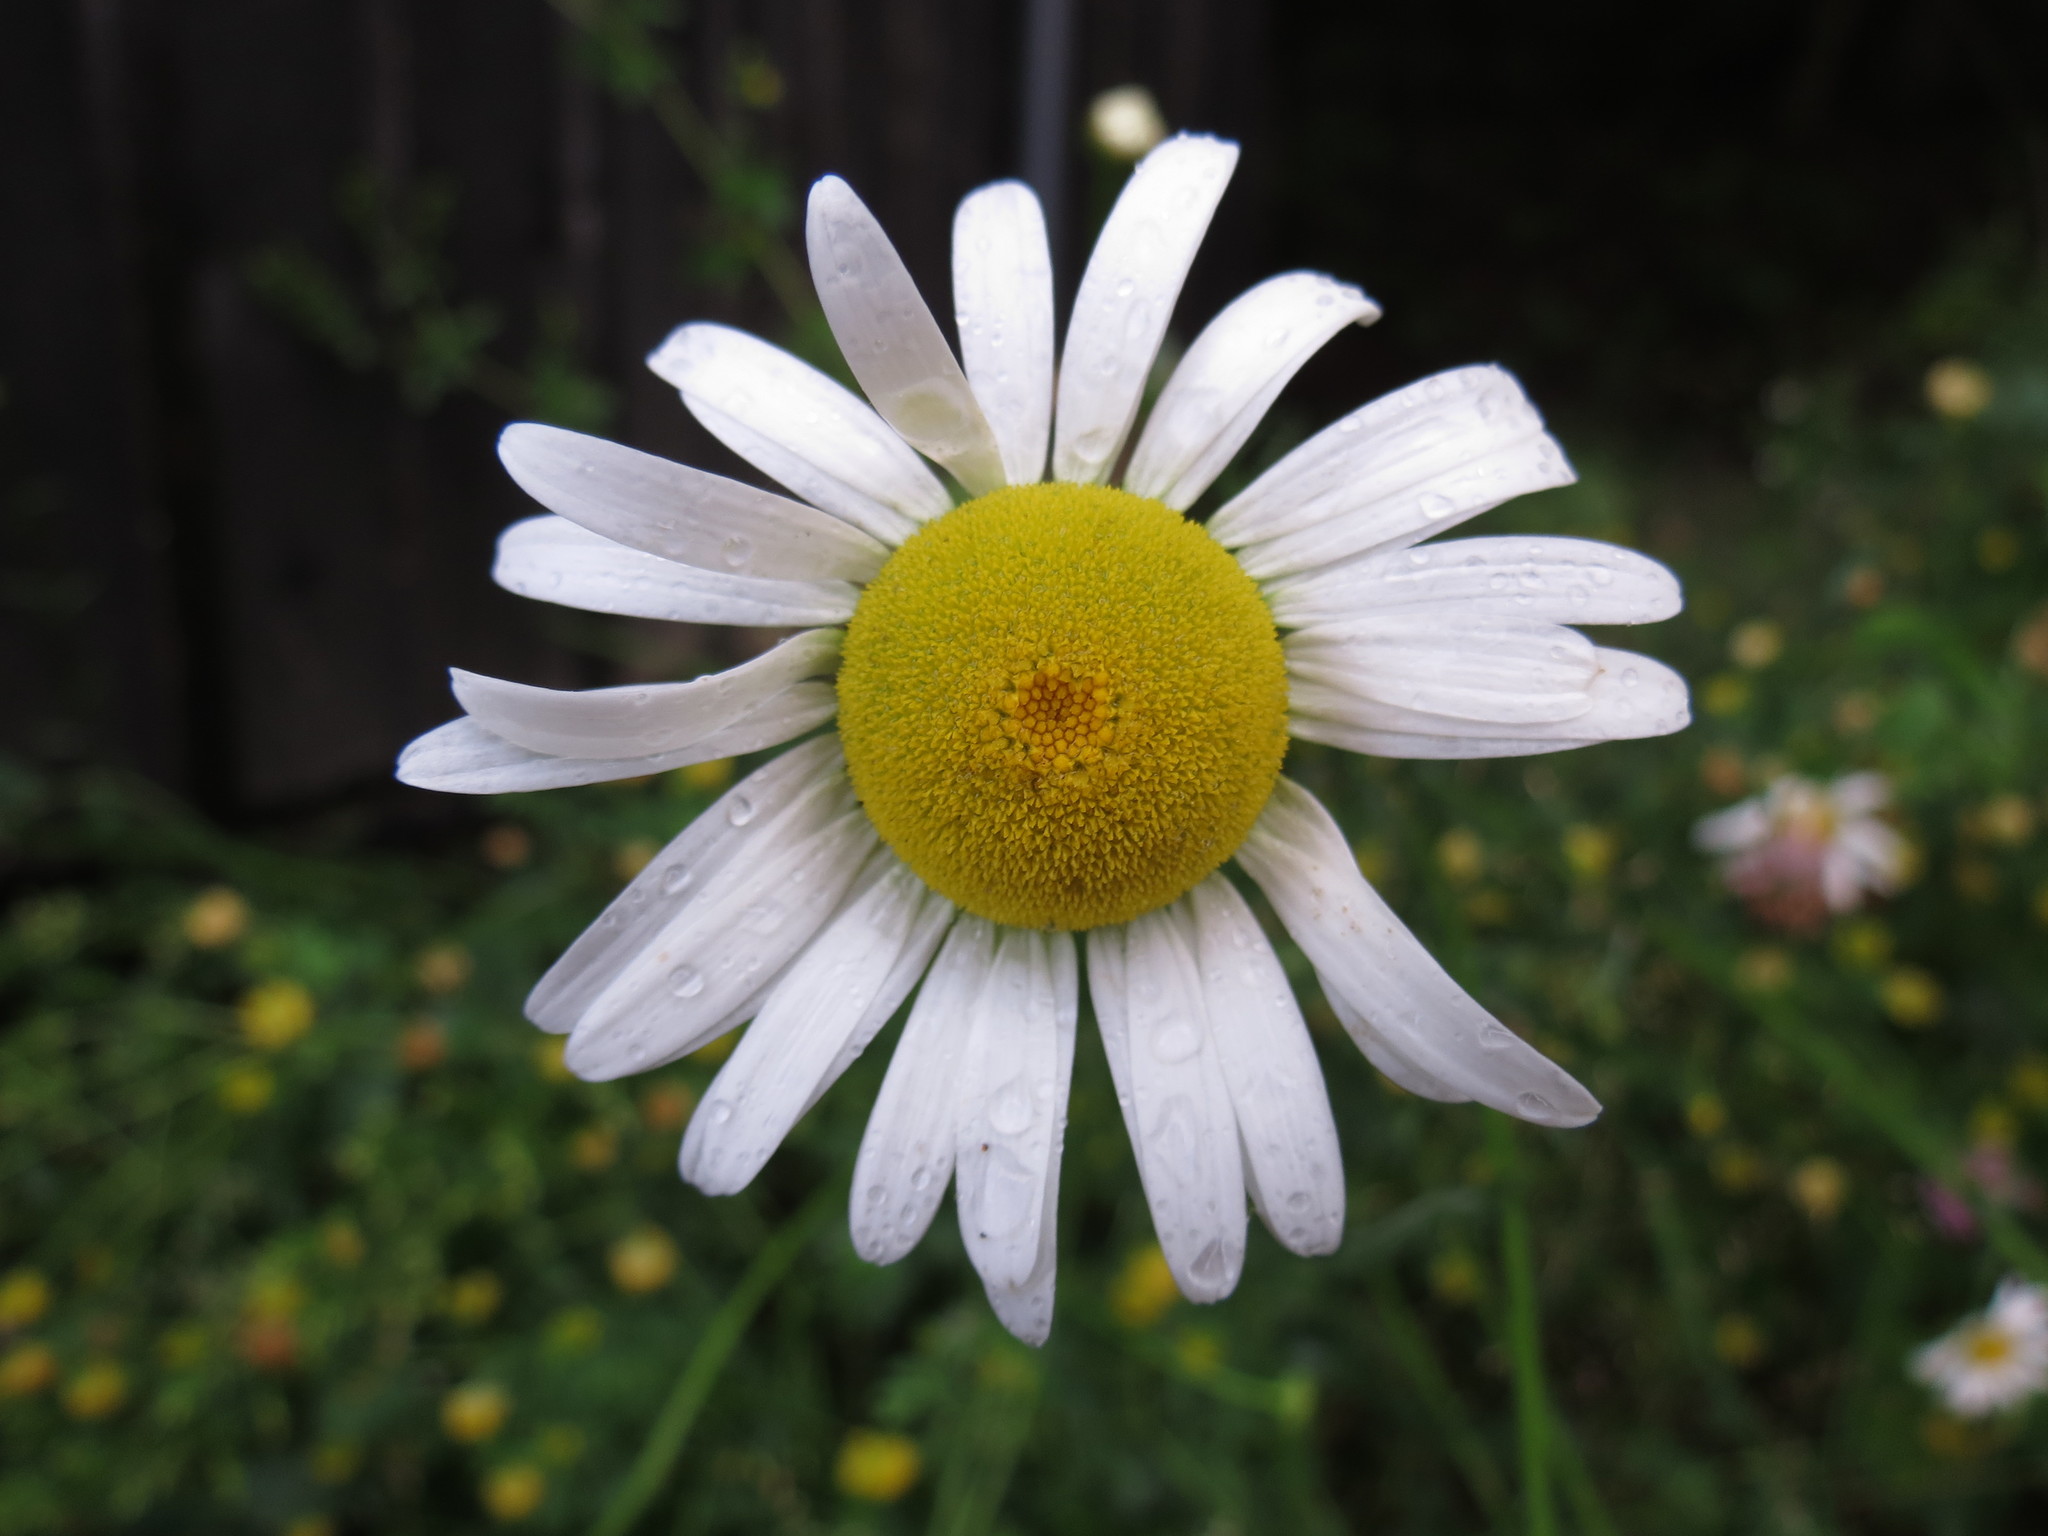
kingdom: Plantae
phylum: Tracheophyta
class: Magnoliopsida
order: Asterales
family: Asteraceae
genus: Leucanthemum
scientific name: Leucanthemum vulgare
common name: Oxeye daisy
